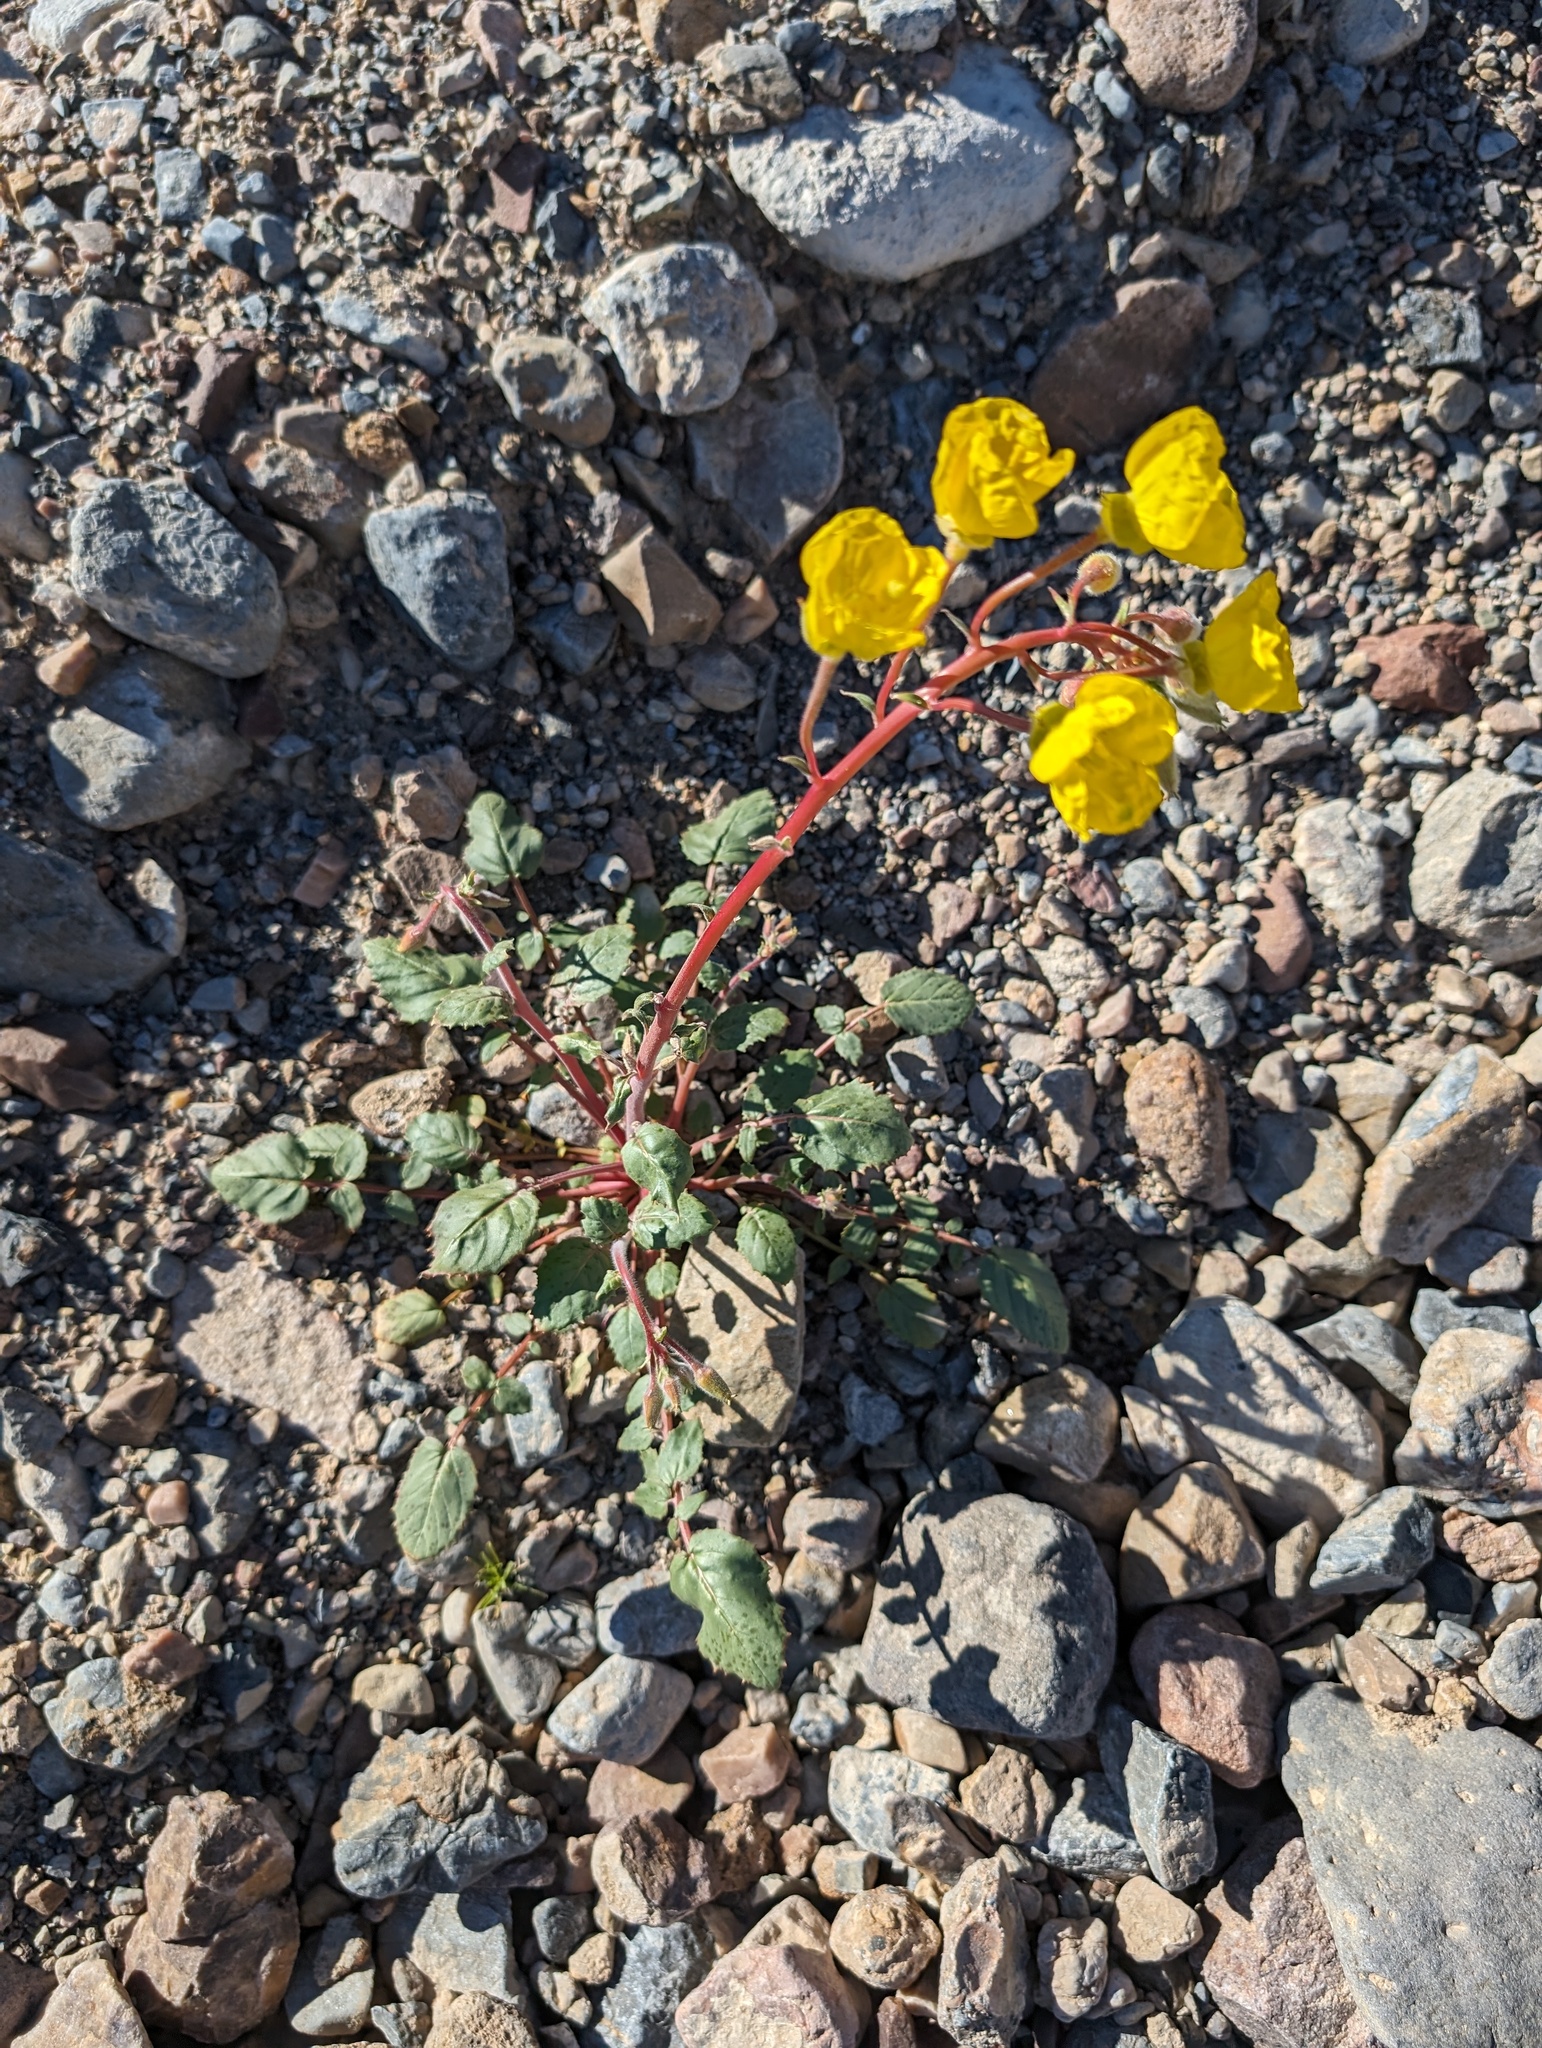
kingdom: Plantae
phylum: Tracheophyta
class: Magnoliopsida
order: Myrtales
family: Onagraceae
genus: Chylismia
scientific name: Chylismia brevipes
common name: Yellow cups
